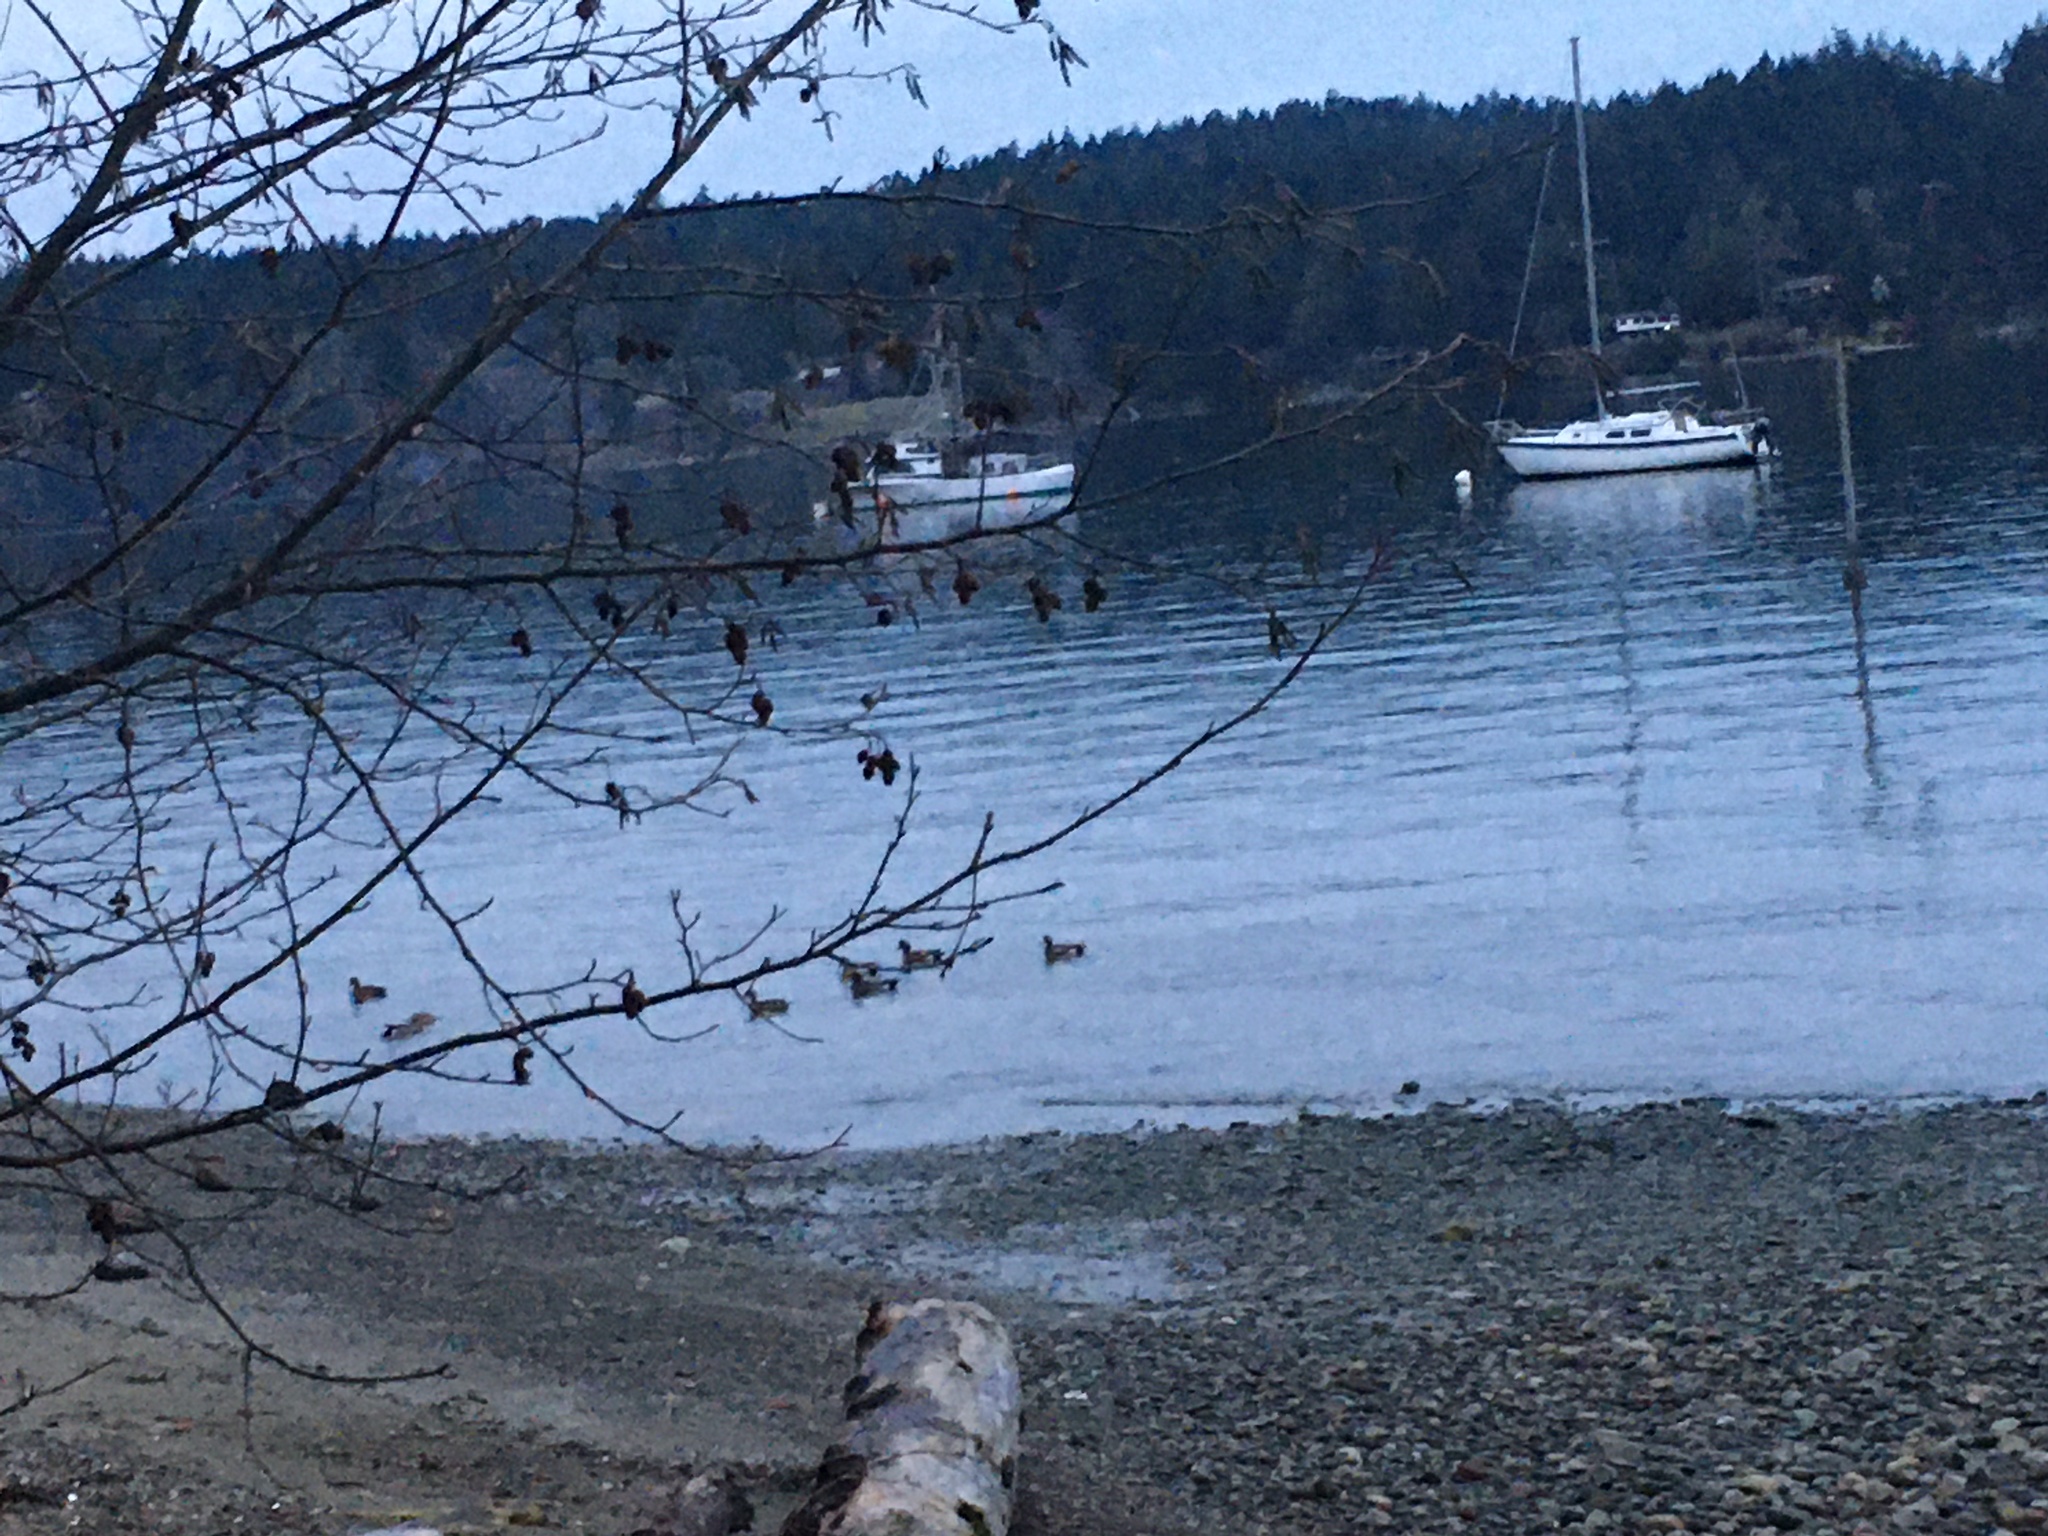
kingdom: Animalia
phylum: Chordata
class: Aves
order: Anseriformes
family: Anatidae
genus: Mareca
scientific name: Mareca americana
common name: American wigeon
